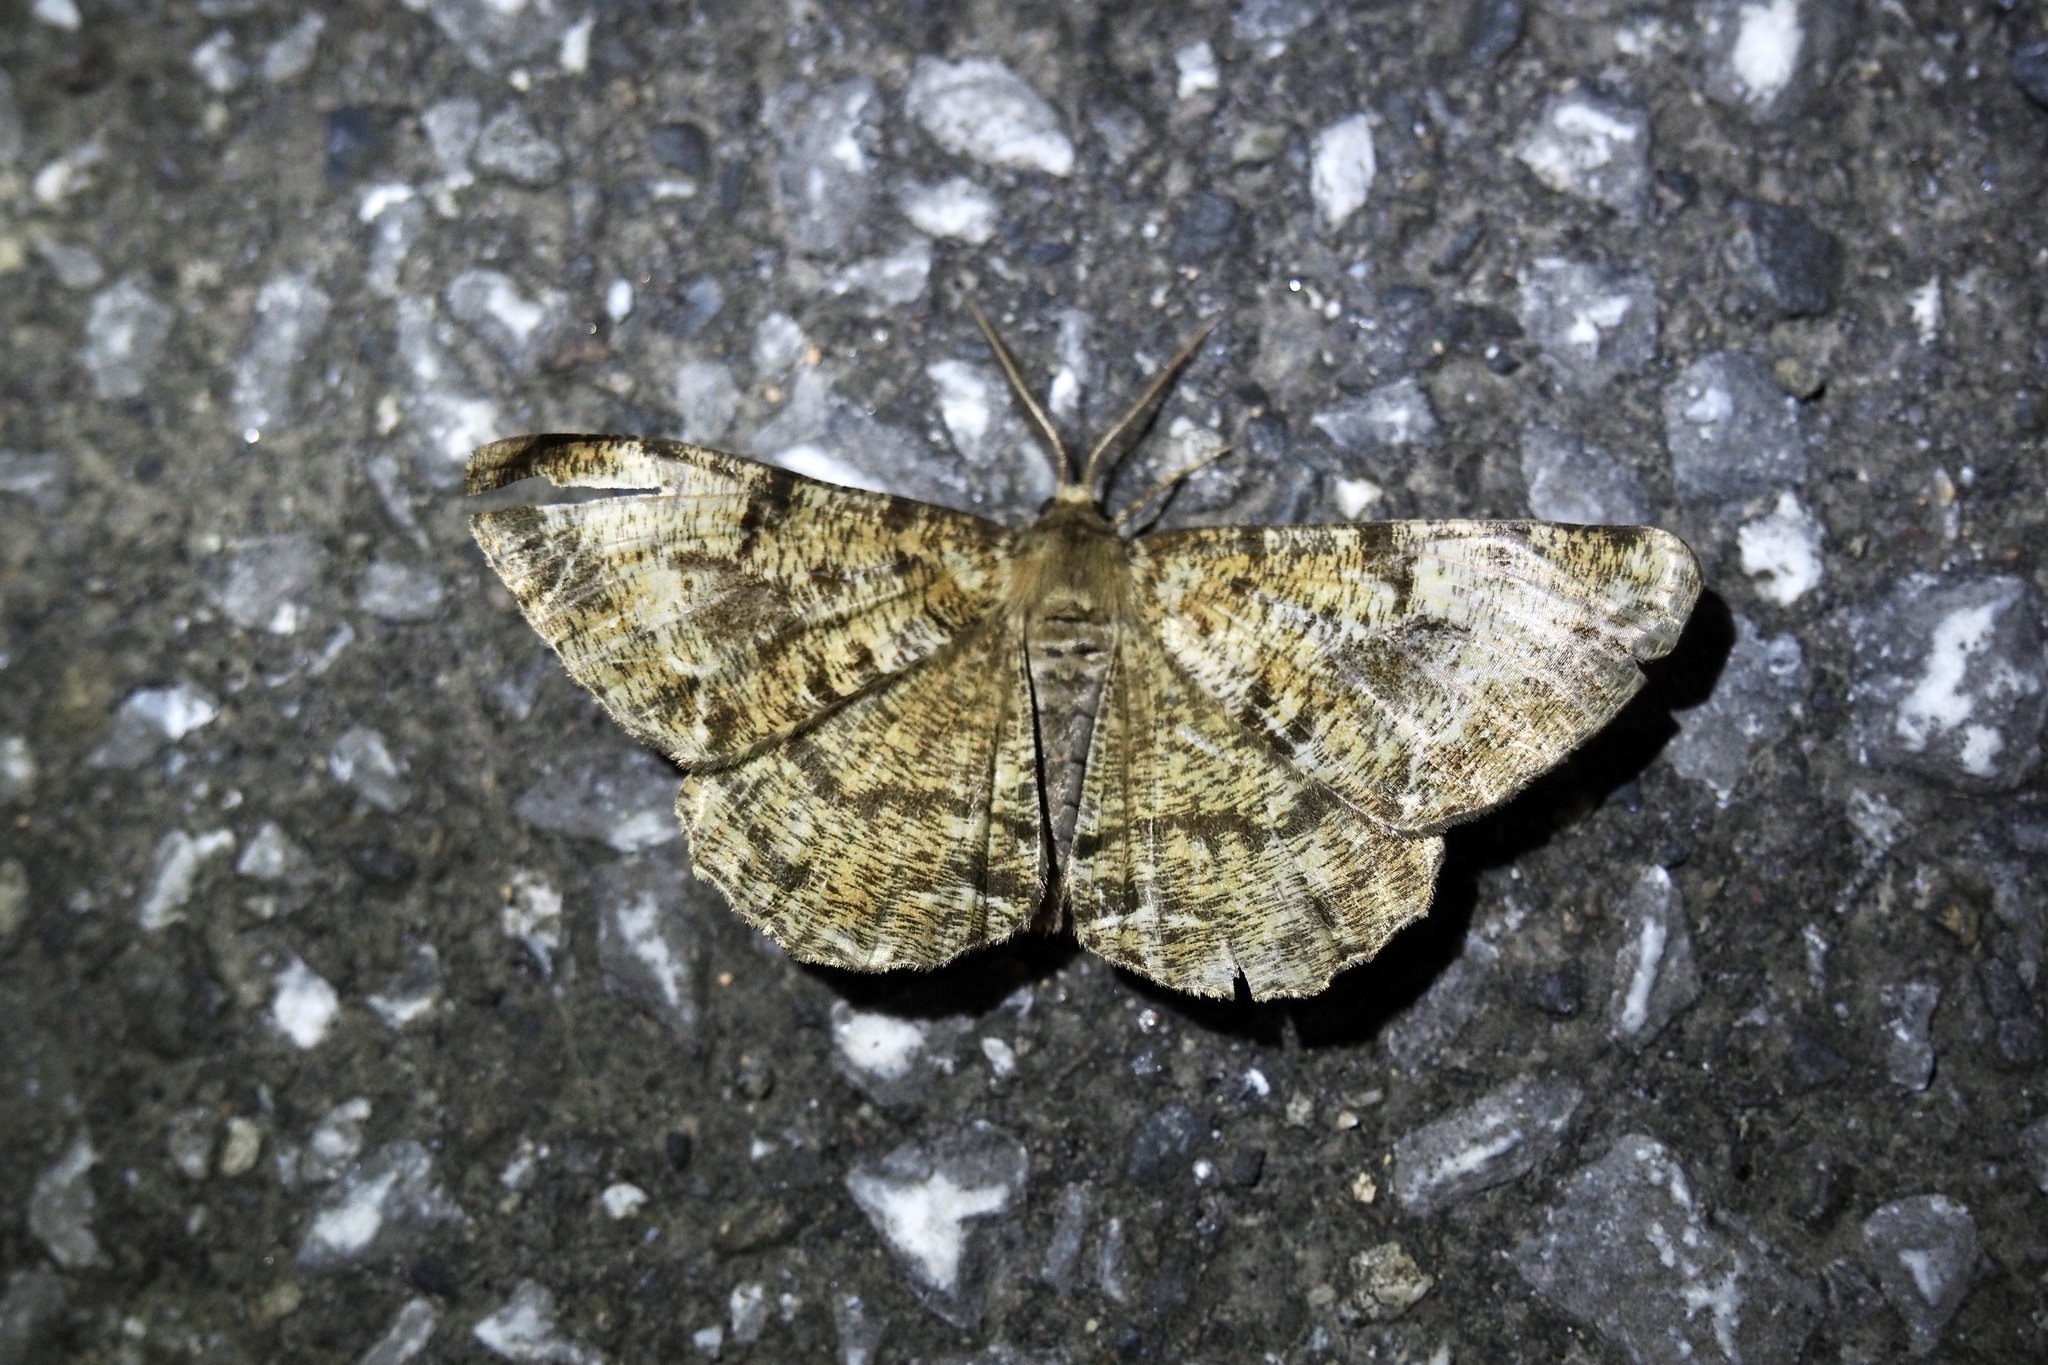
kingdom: Animalia
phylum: Arthropoda
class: Insecta
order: Lepidoptera
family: Geometridae
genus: Duliophyle
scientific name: Duliophyle agitata
